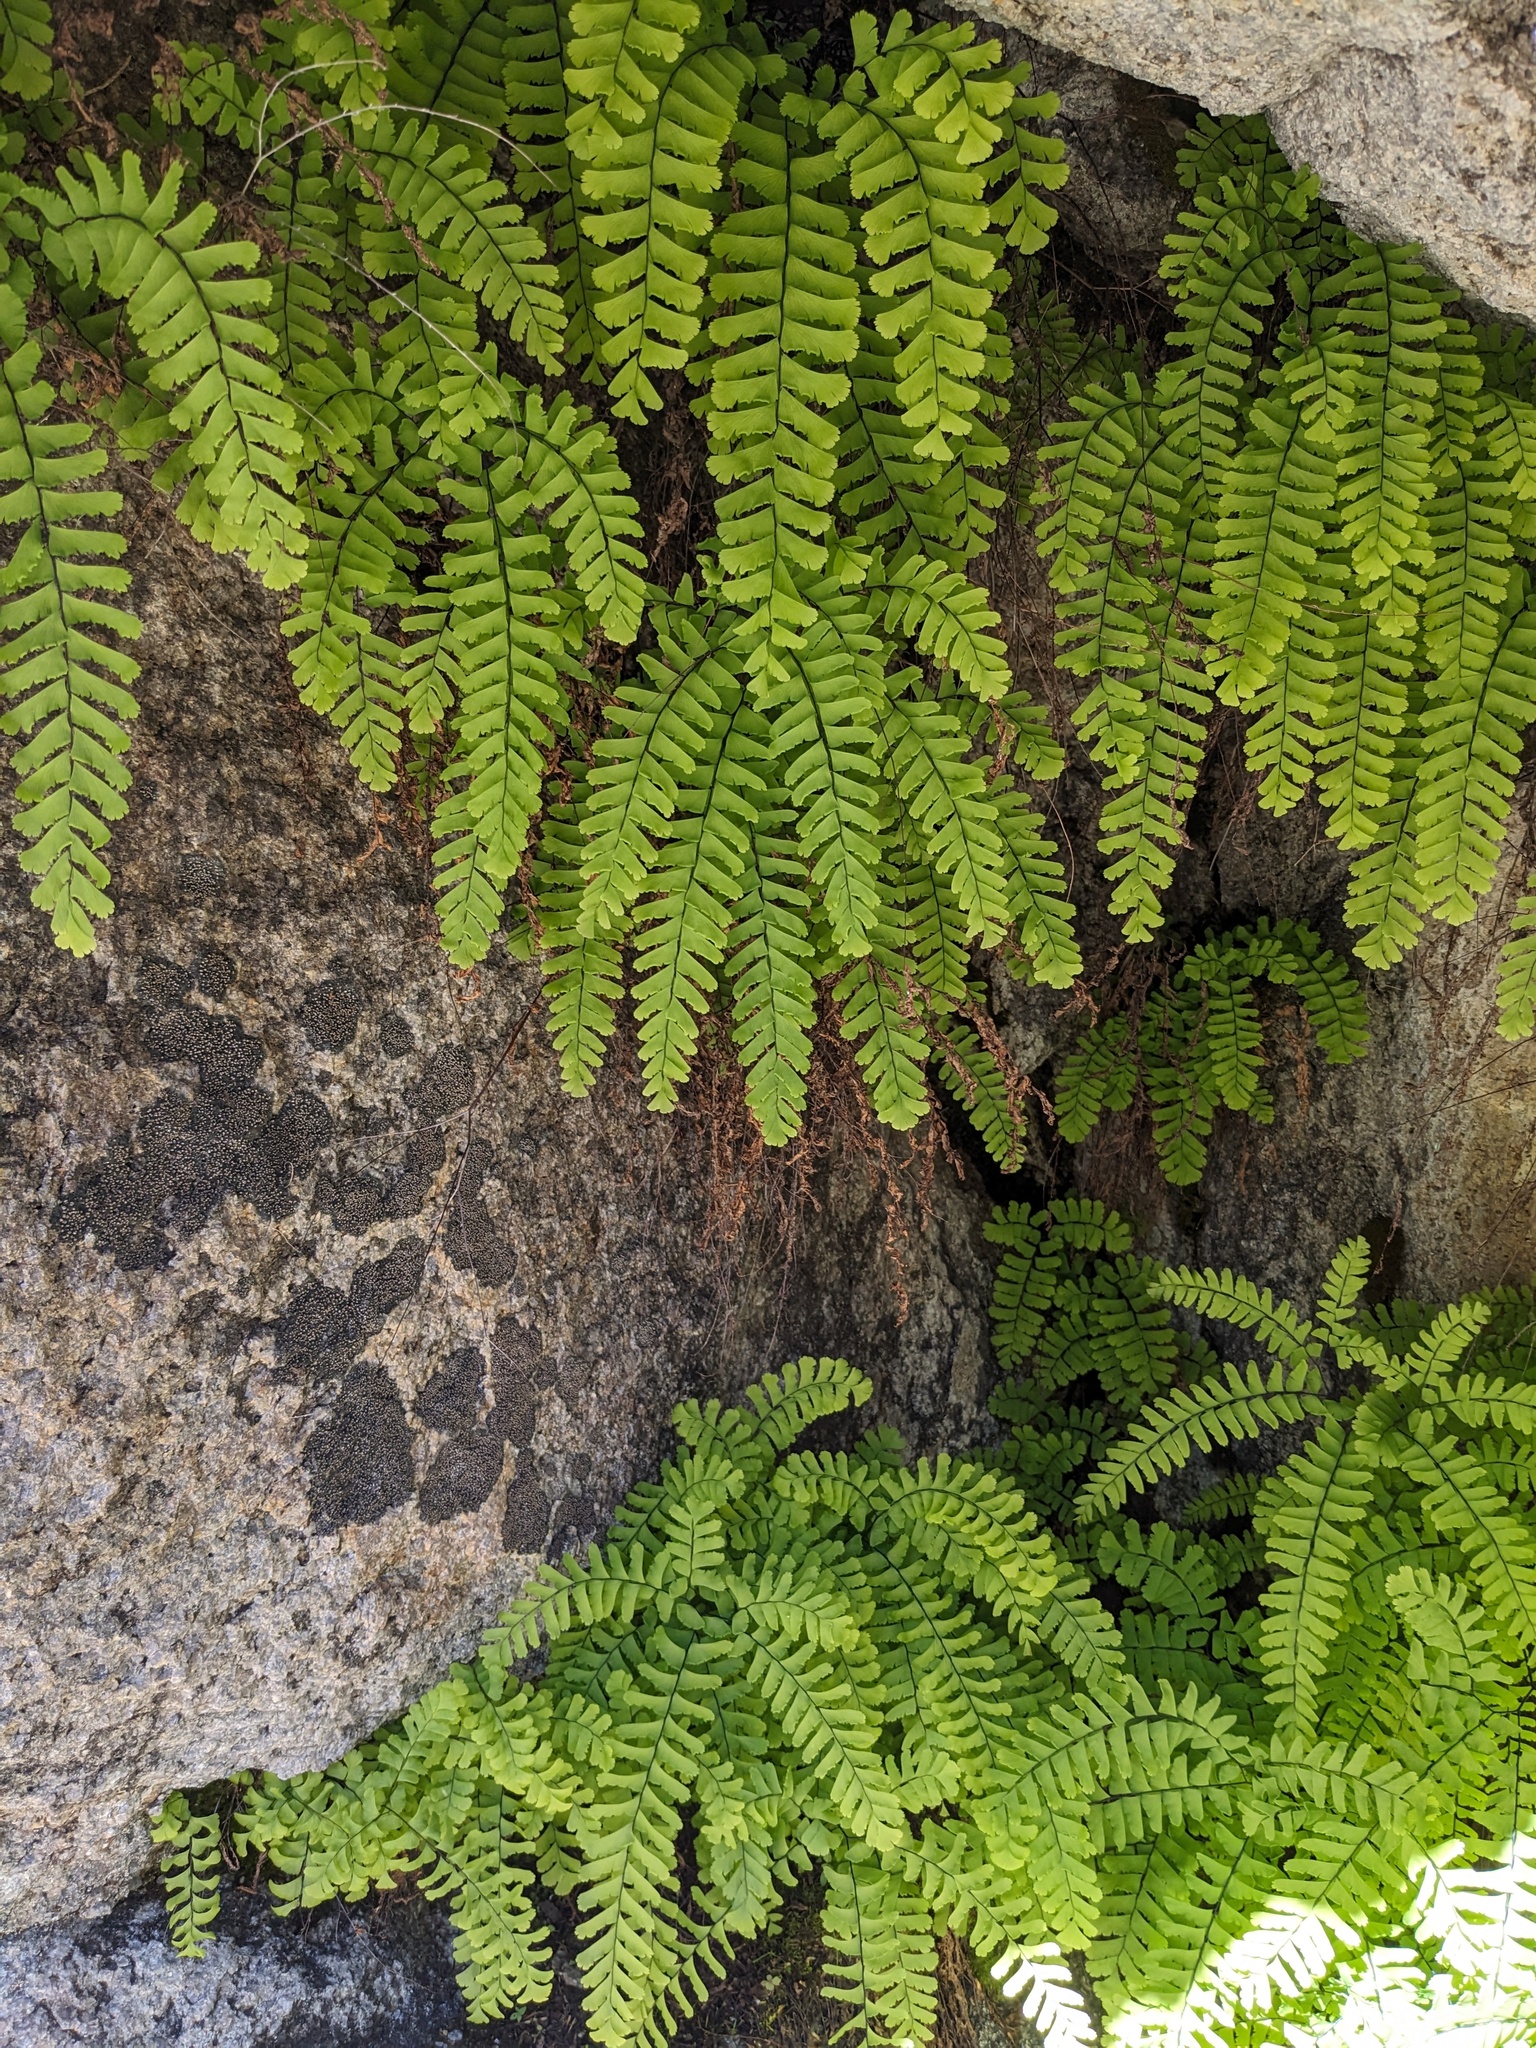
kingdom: Plantae
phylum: Tracheophyta
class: Polypodiopsida
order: Polypodiales
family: Pteridaceae
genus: Adiantum
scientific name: Adiantum aleuticum
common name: Aleutian maidenhair fern
